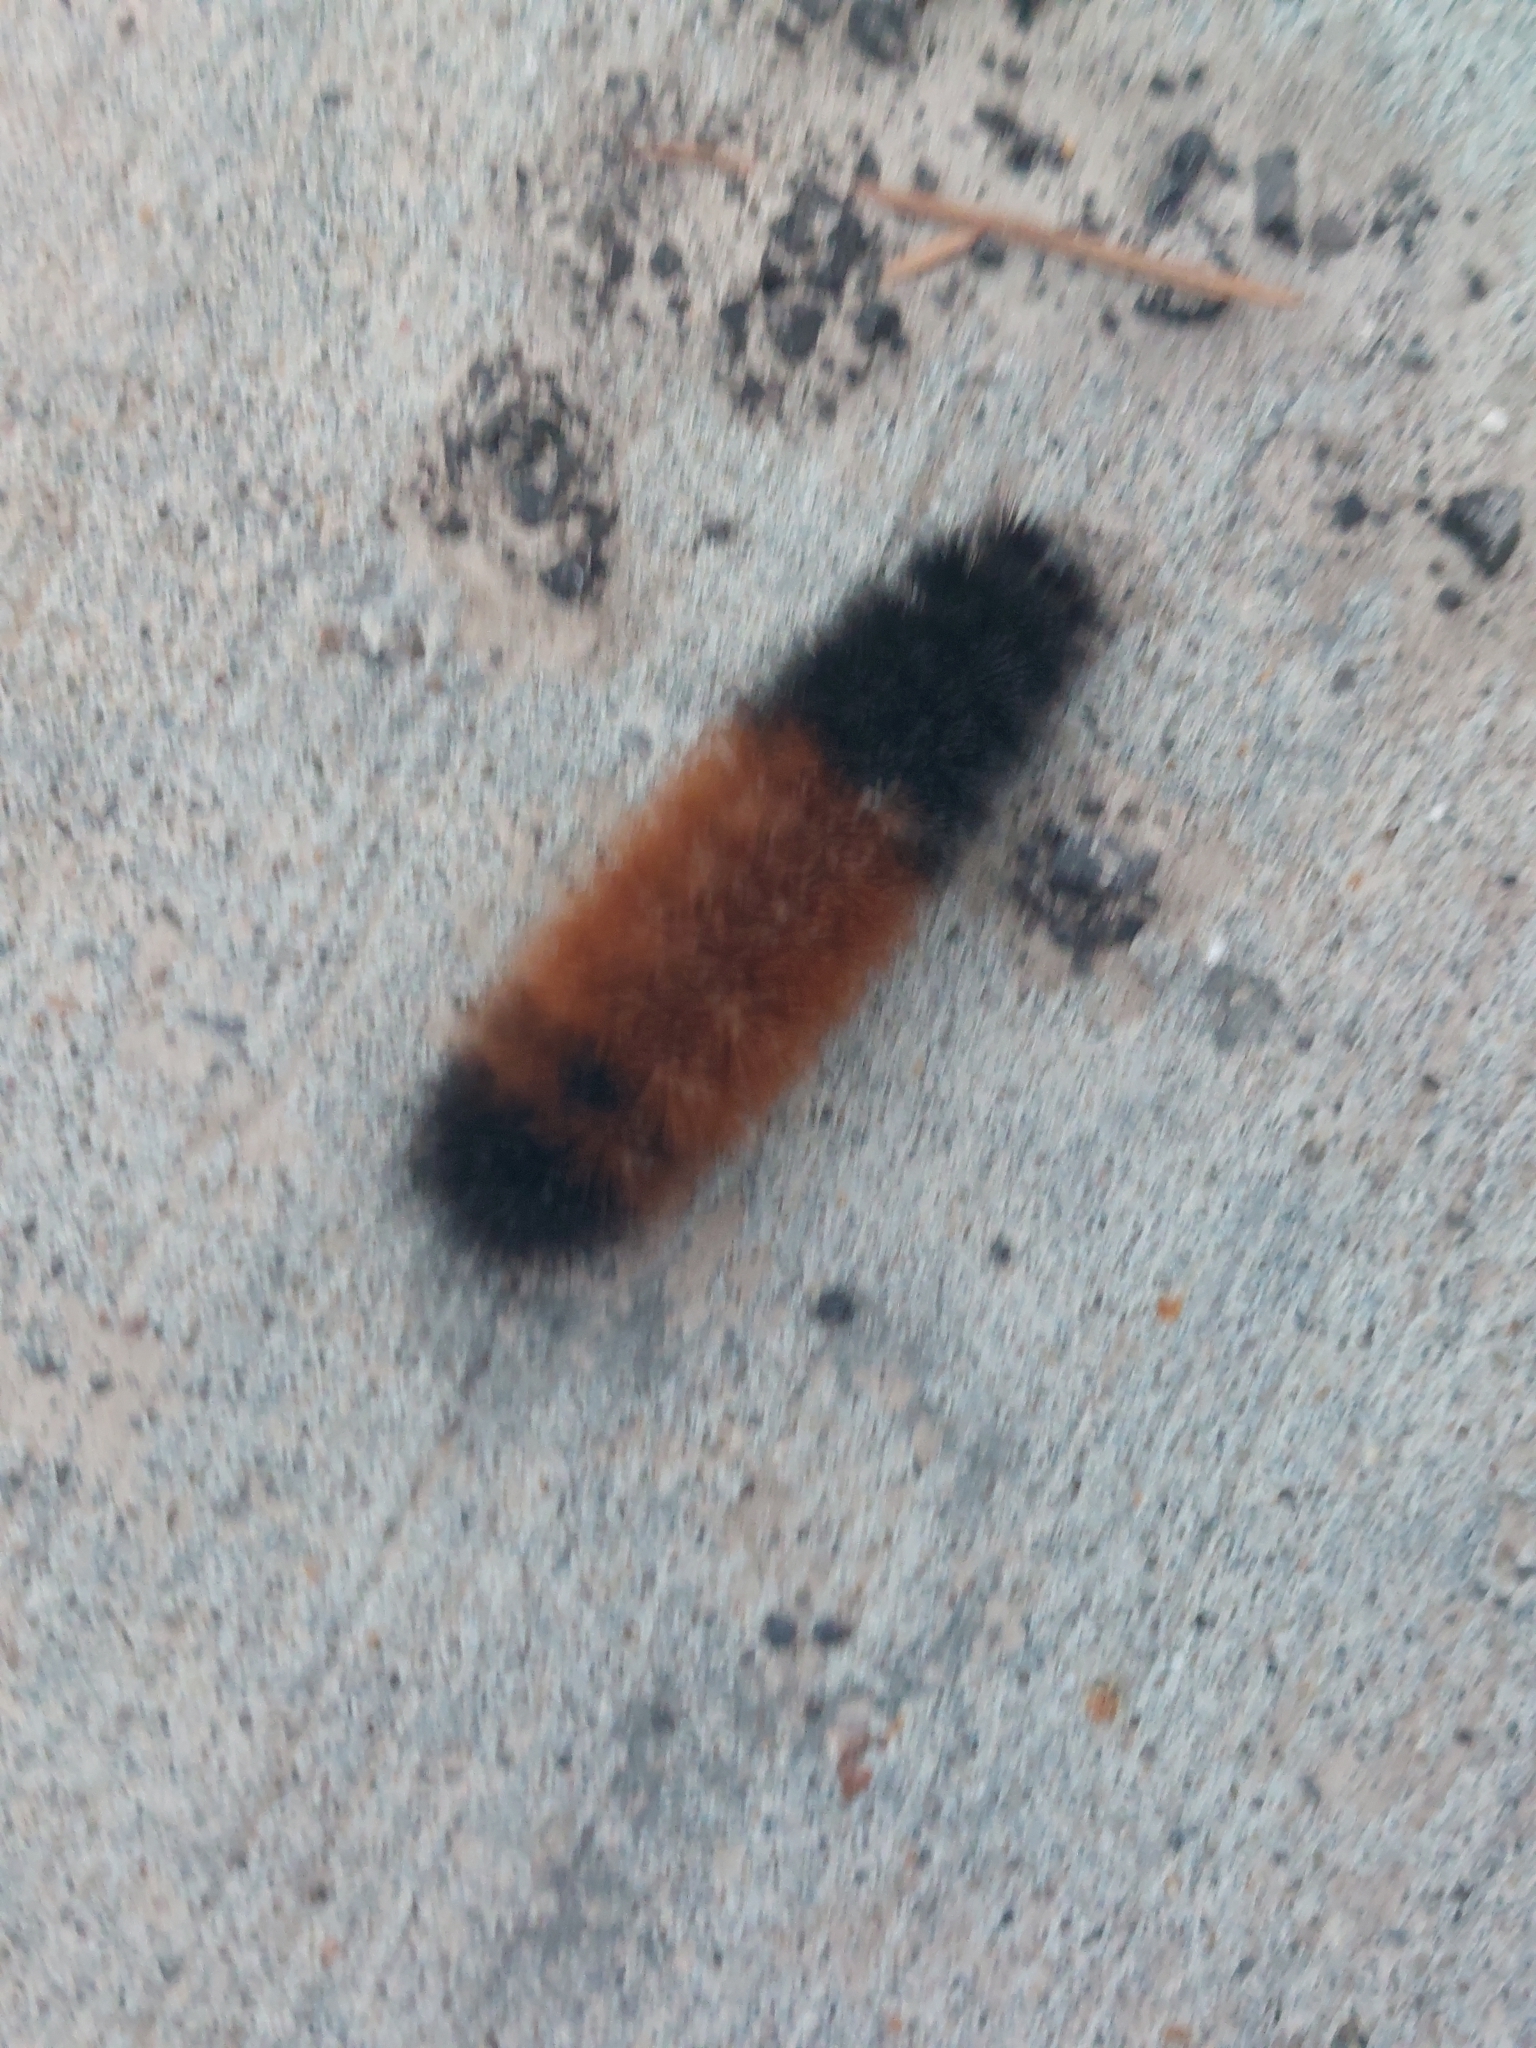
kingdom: Animalia
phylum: Arthropoda
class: Insecta
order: Lepidoptera
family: Erebidae
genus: Pyrrharctia
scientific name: Pyrrharctia isabella
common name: Isabella tiger moth
